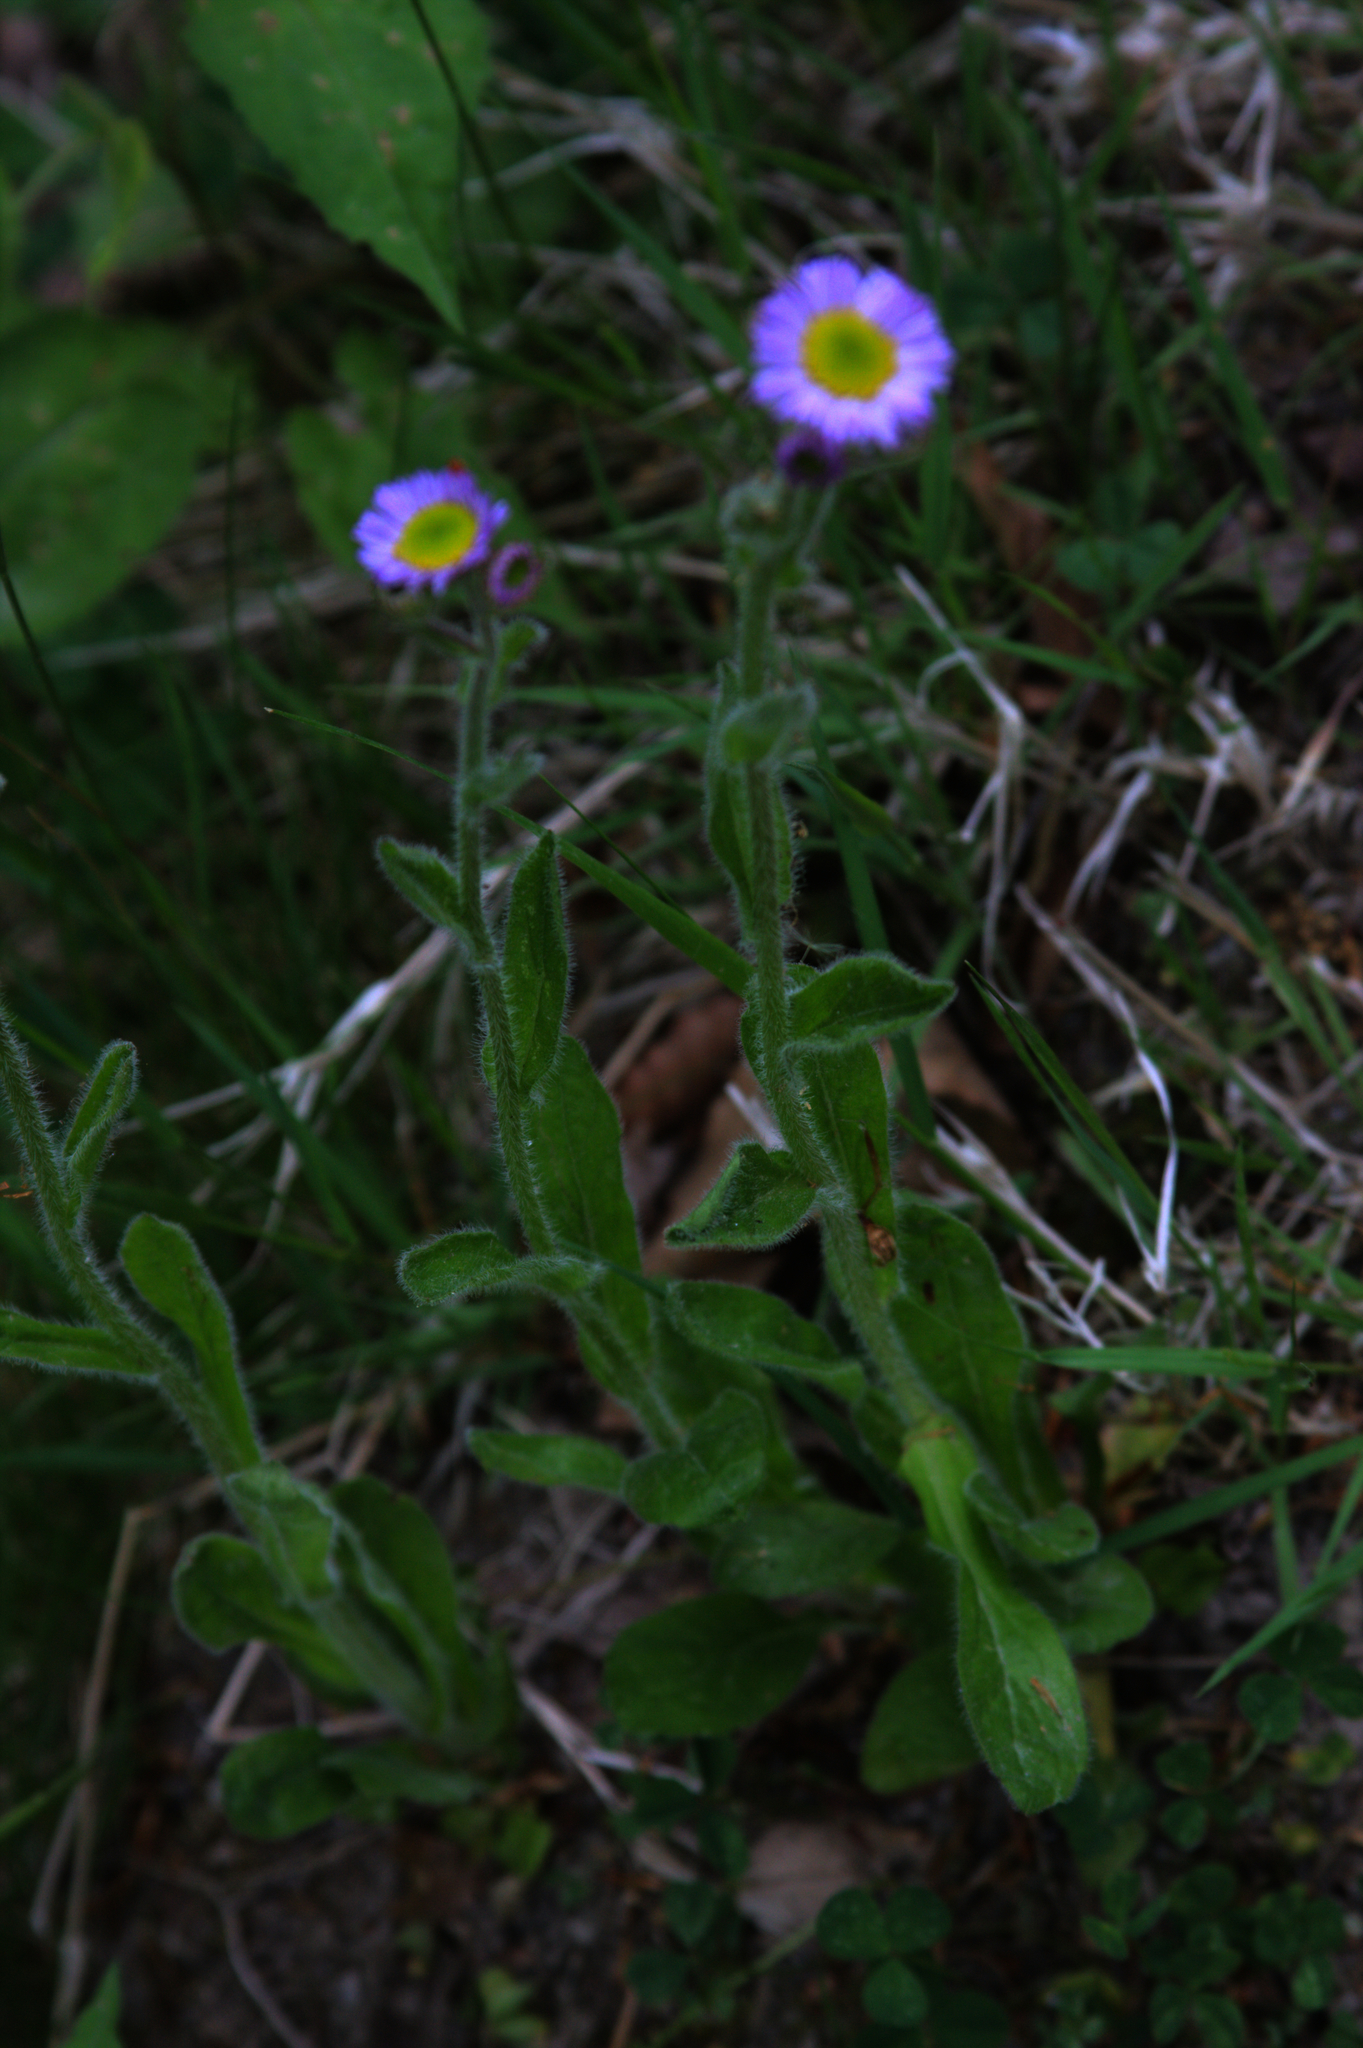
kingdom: Plantae
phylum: Tracheophyta
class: Magnoliopsida
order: Asterales
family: Asteraceae
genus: Erigeron
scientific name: Erigeron pulchellus
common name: Hairy fleabane
